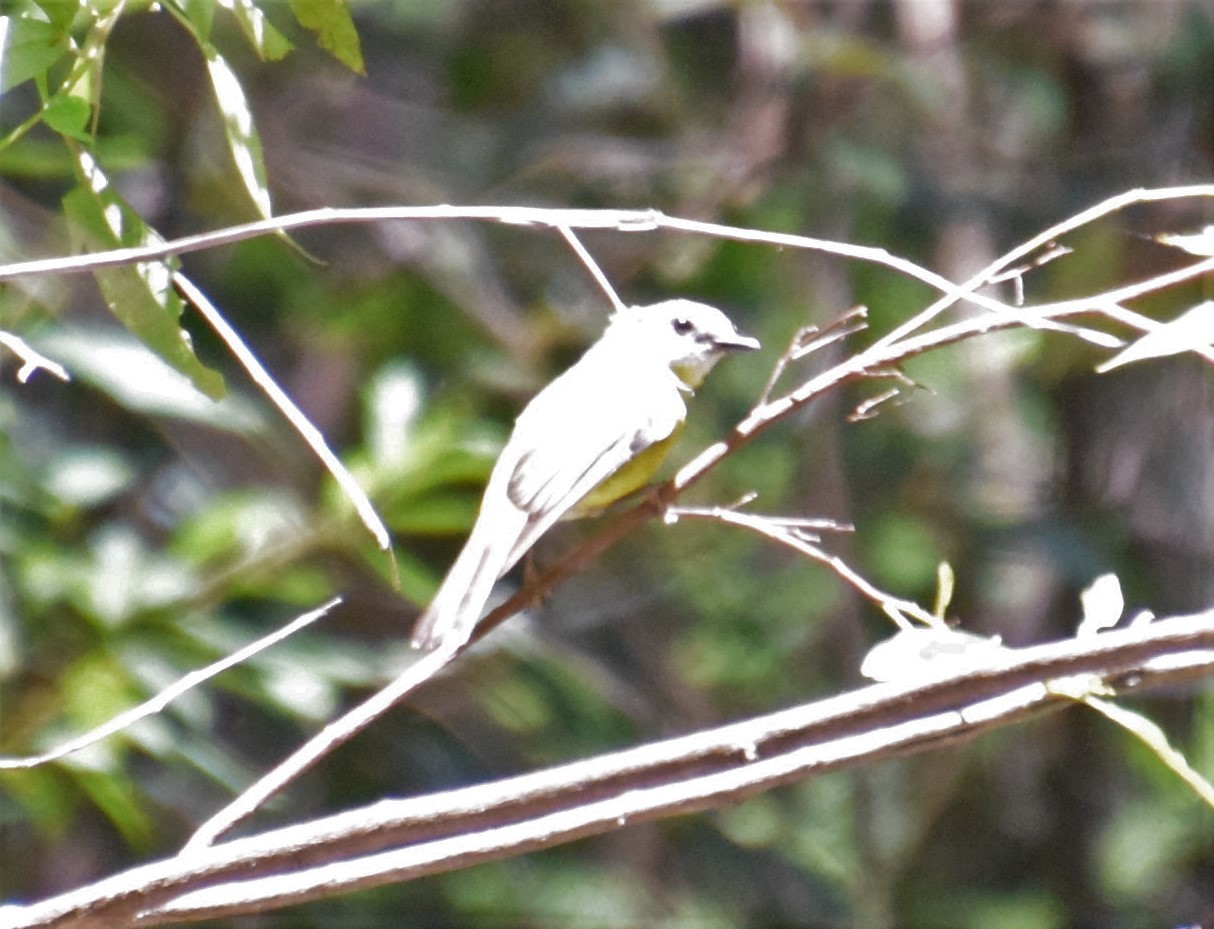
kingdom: Animalia
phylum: Chordata
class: Aves
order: Passeriformes
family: Petroicidae
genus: Eopsaltria
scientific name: Eopsaltria australis
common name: Eastern yellow robin
